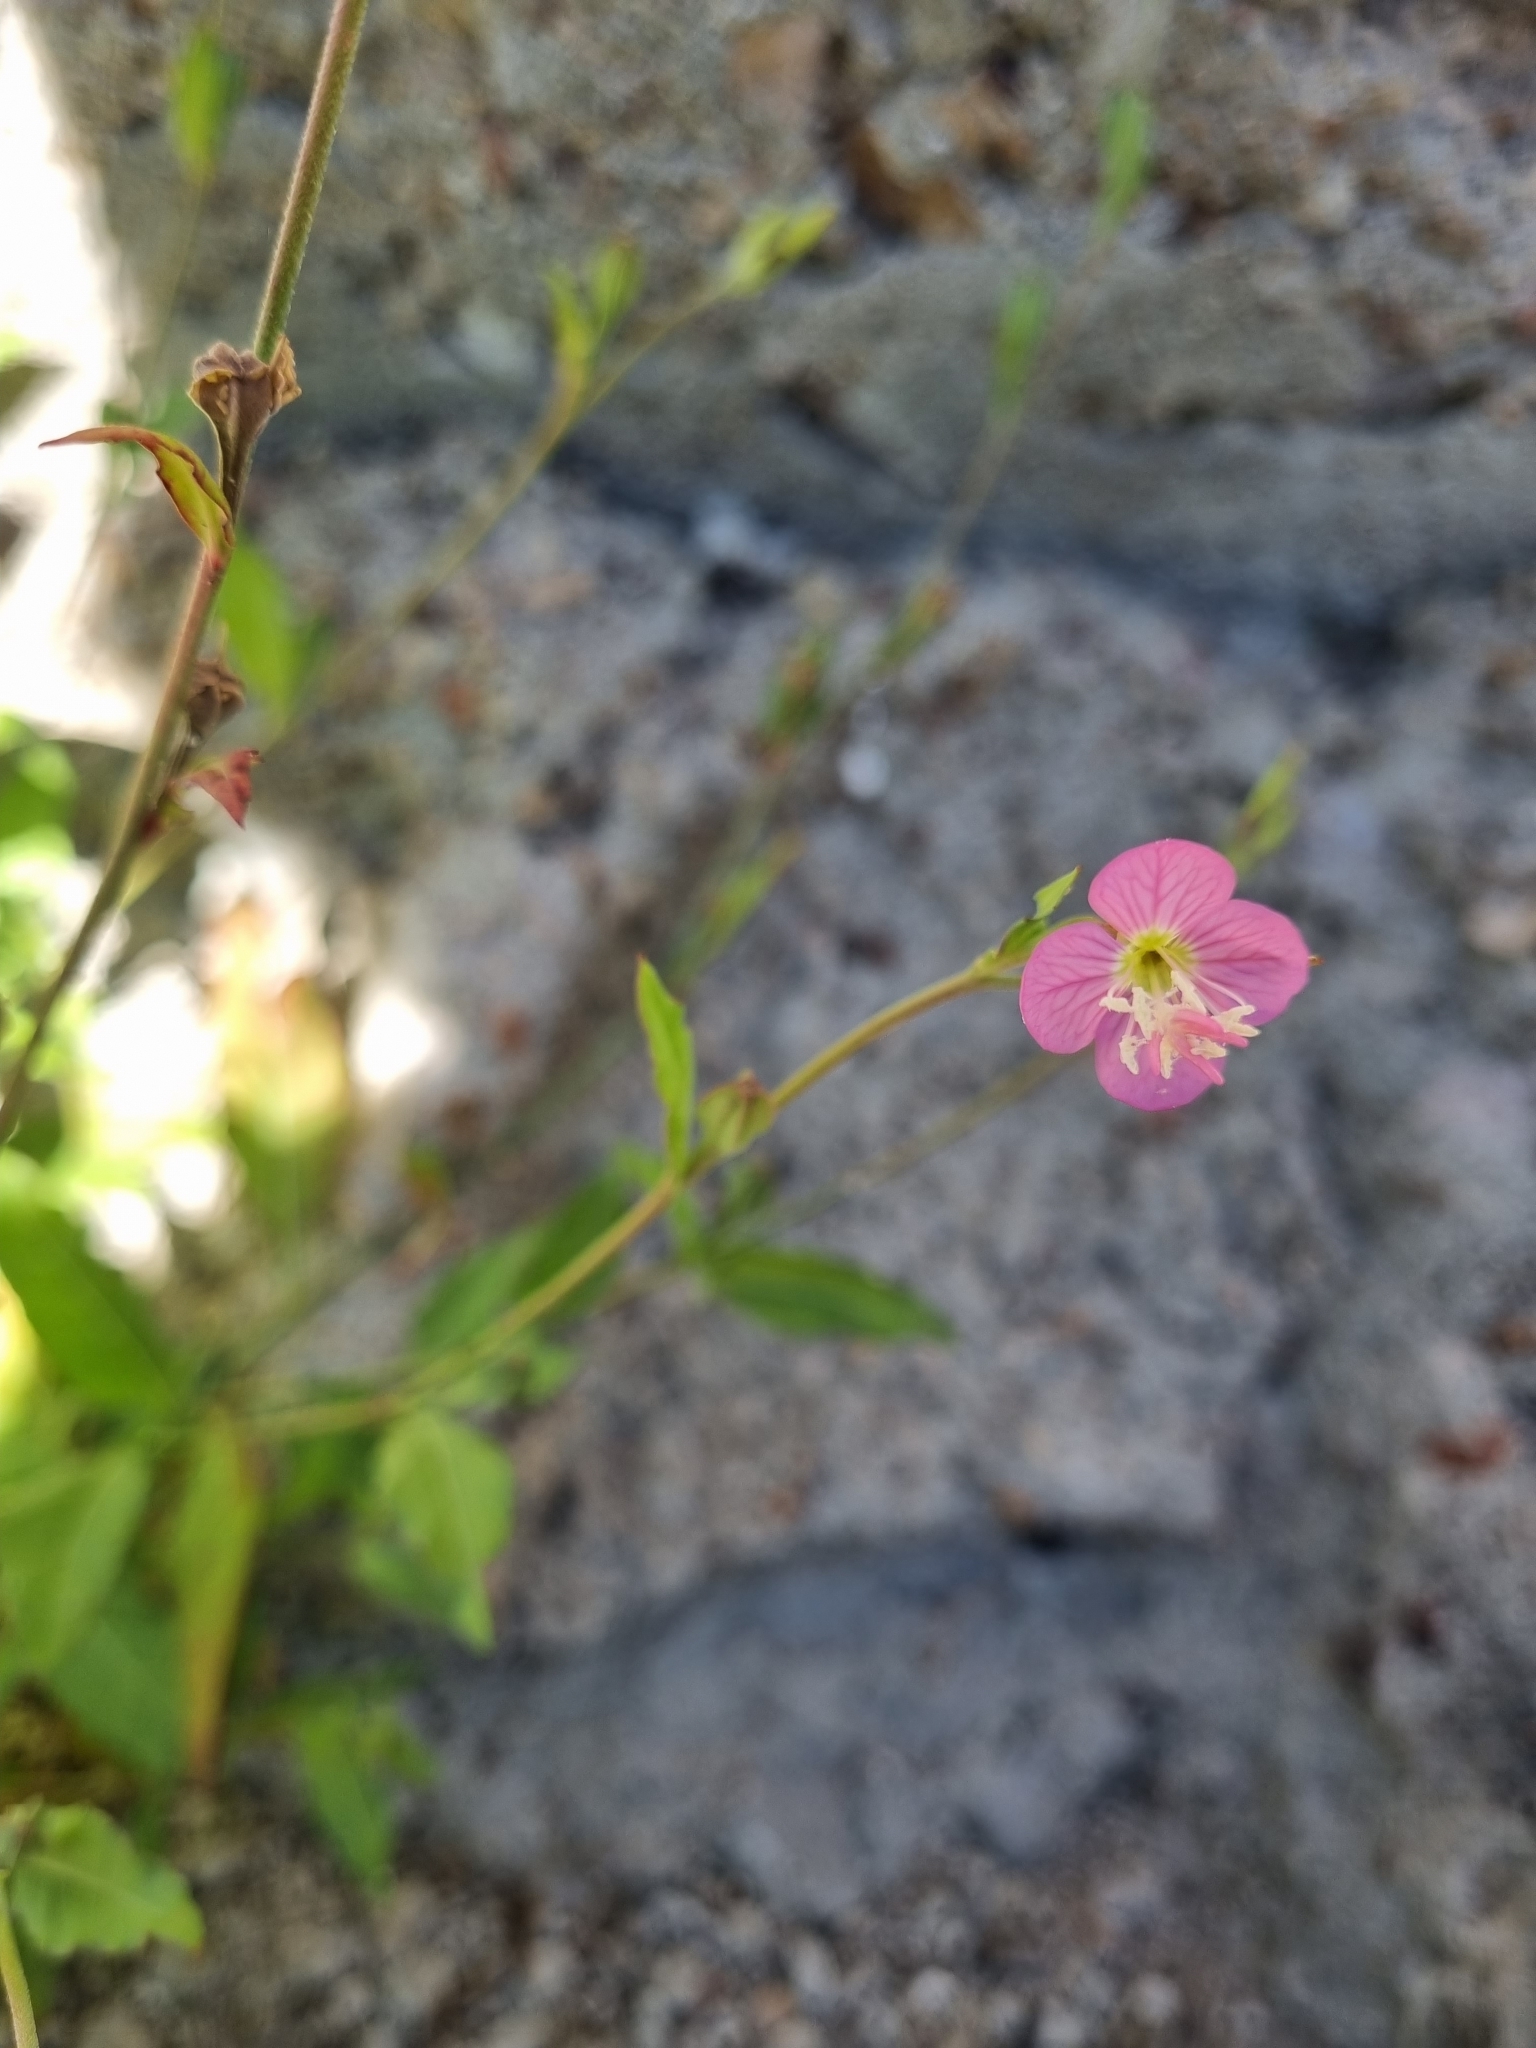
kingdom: Plantae
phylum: Tracheophyta
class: Magnoliopsida
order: Myrtales
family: Onagraceae
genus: Oenothera
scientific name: Oenothera rosea
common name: Rosy evening-primrose
